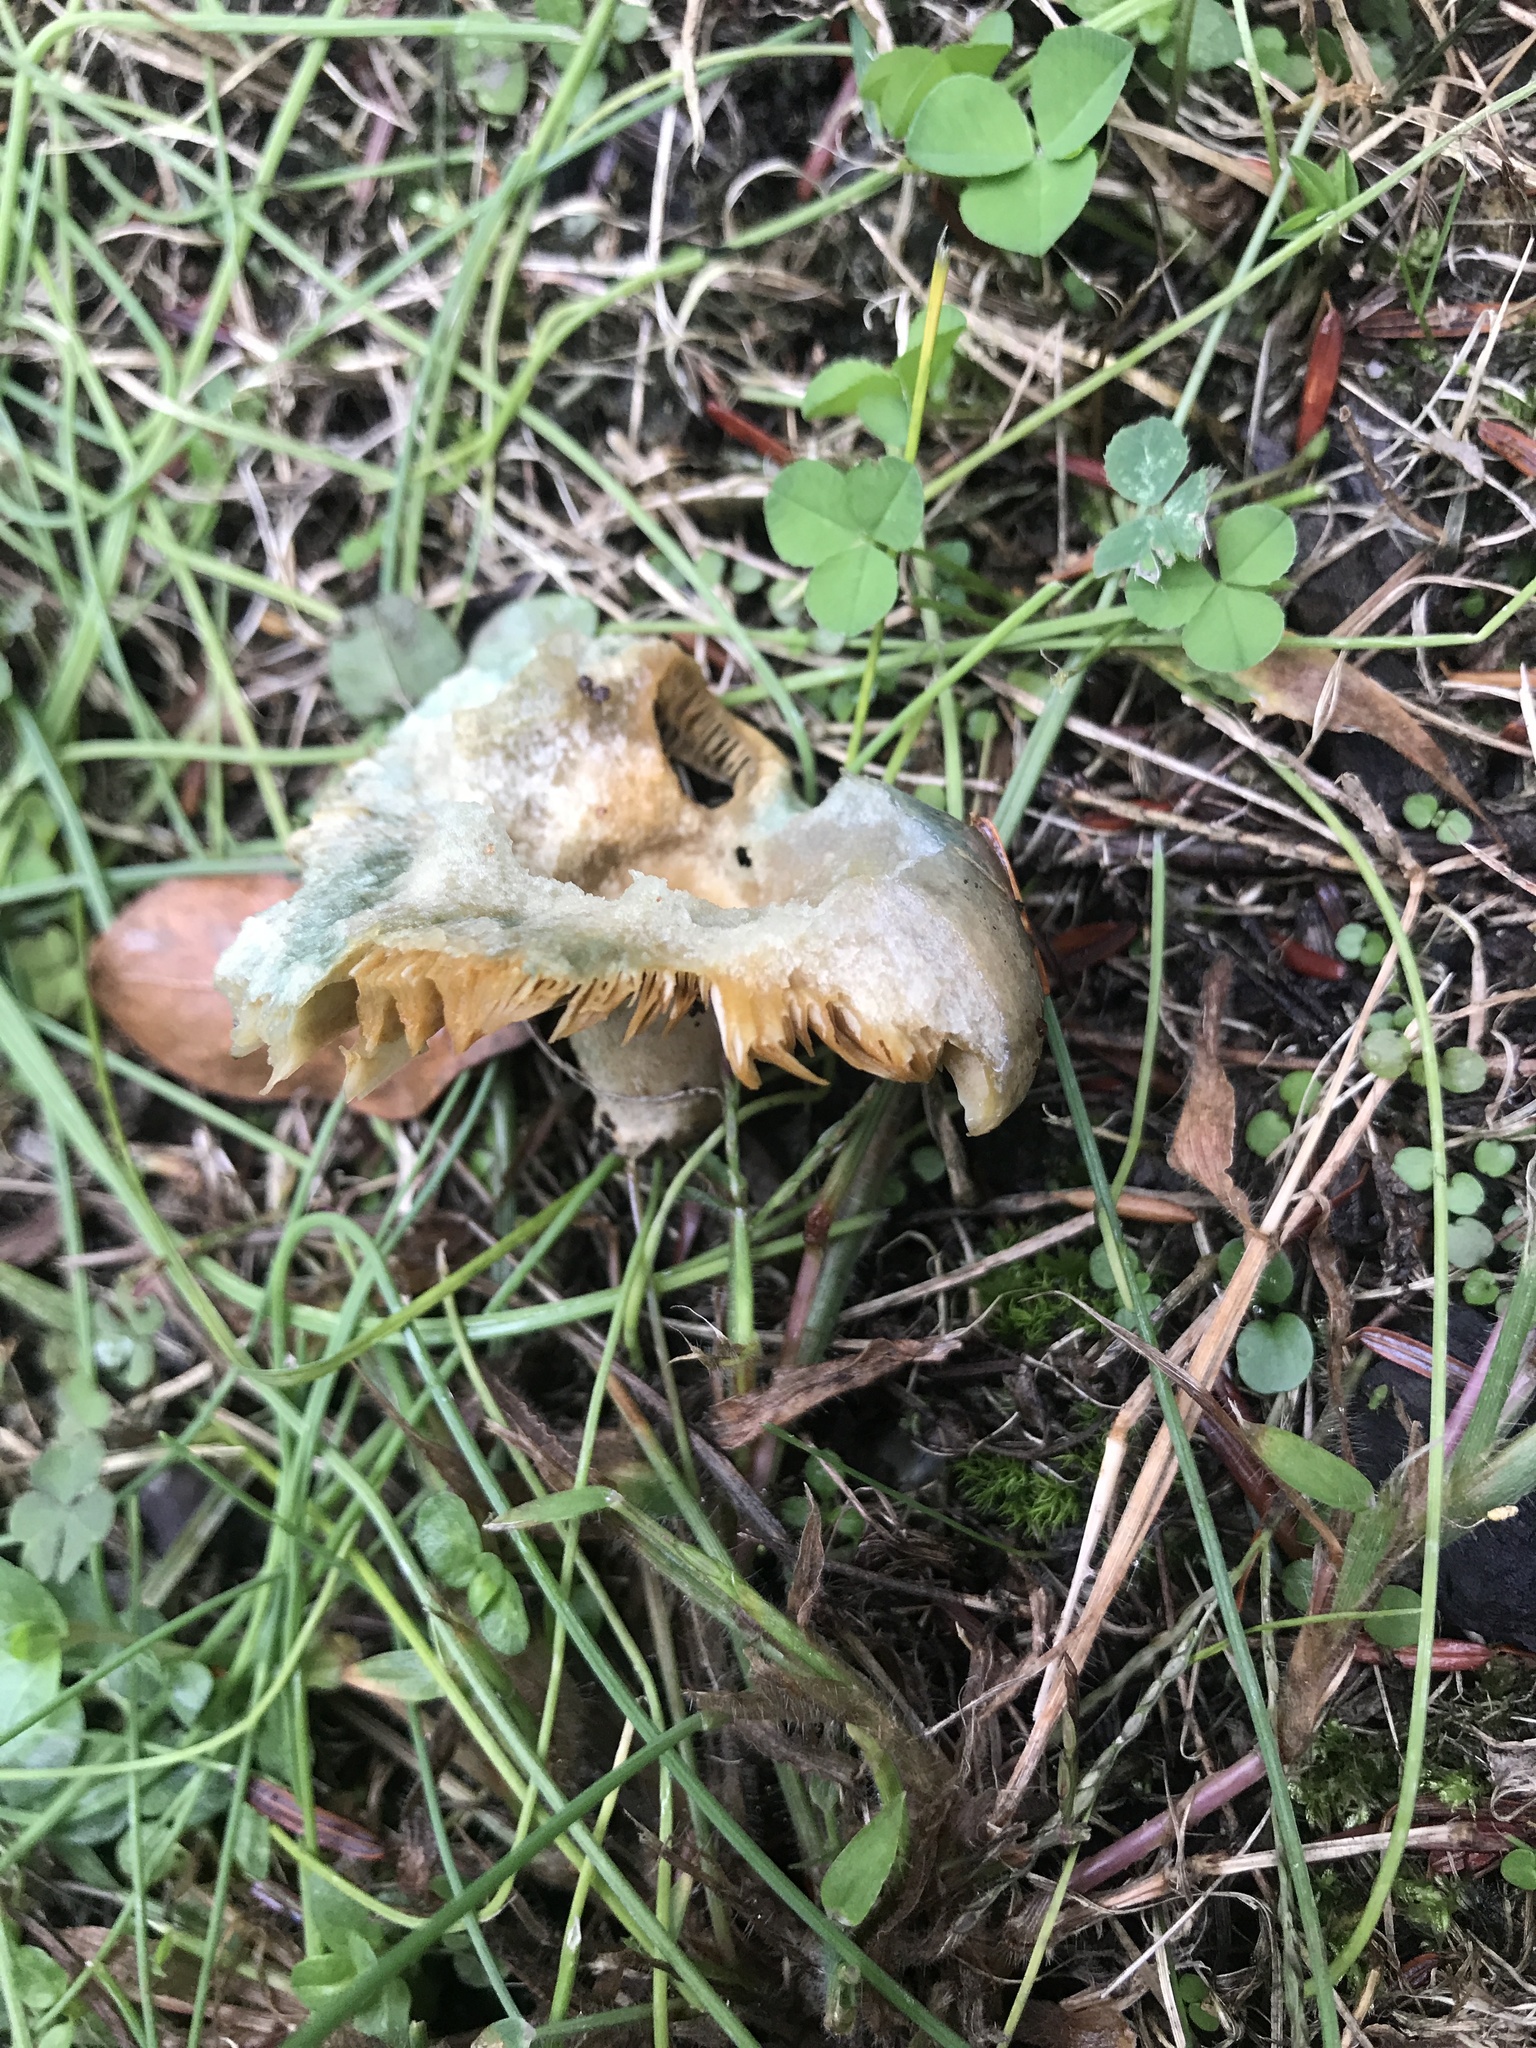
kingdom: Fungi
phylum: Basidiomycota
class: Agaricomycetes
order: Russulales
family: Russulaceae
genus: Lactarius
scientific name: Lactarius paradoxus
